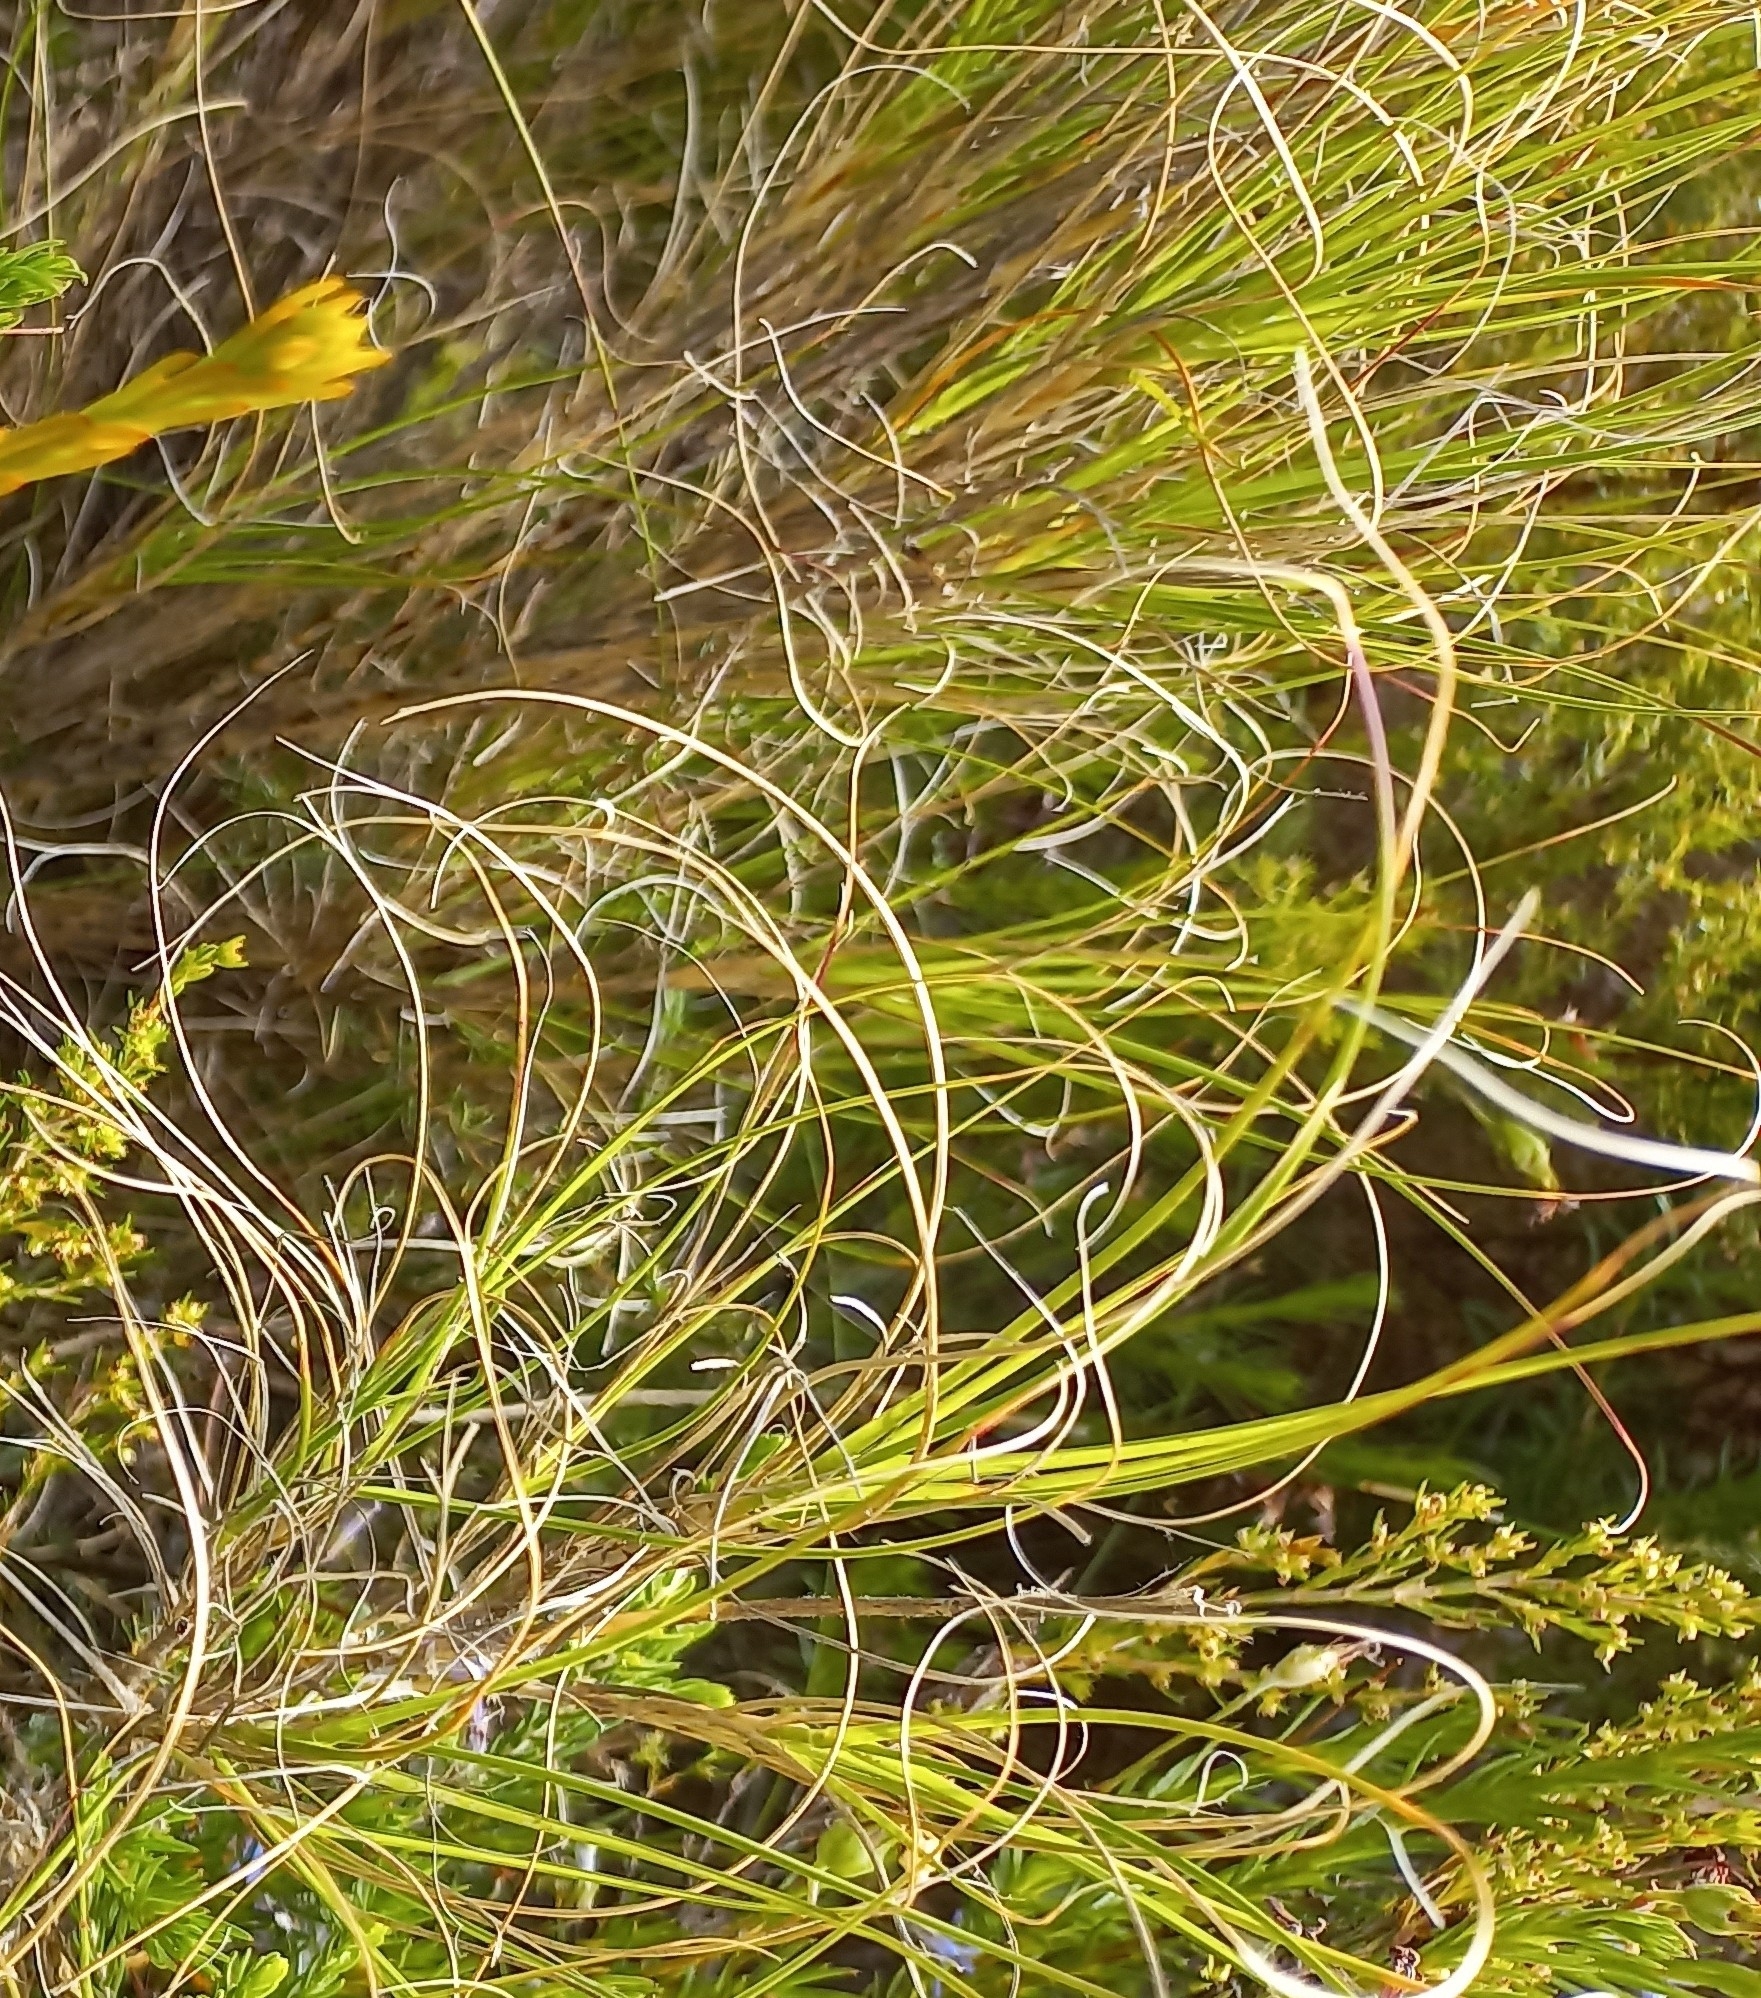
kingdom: Plantae
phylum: Tracheophyta
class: Liliopsida
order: Poales
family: Poaceae
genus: Pseudopentameris
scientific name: Pseudopentameris macrantha
